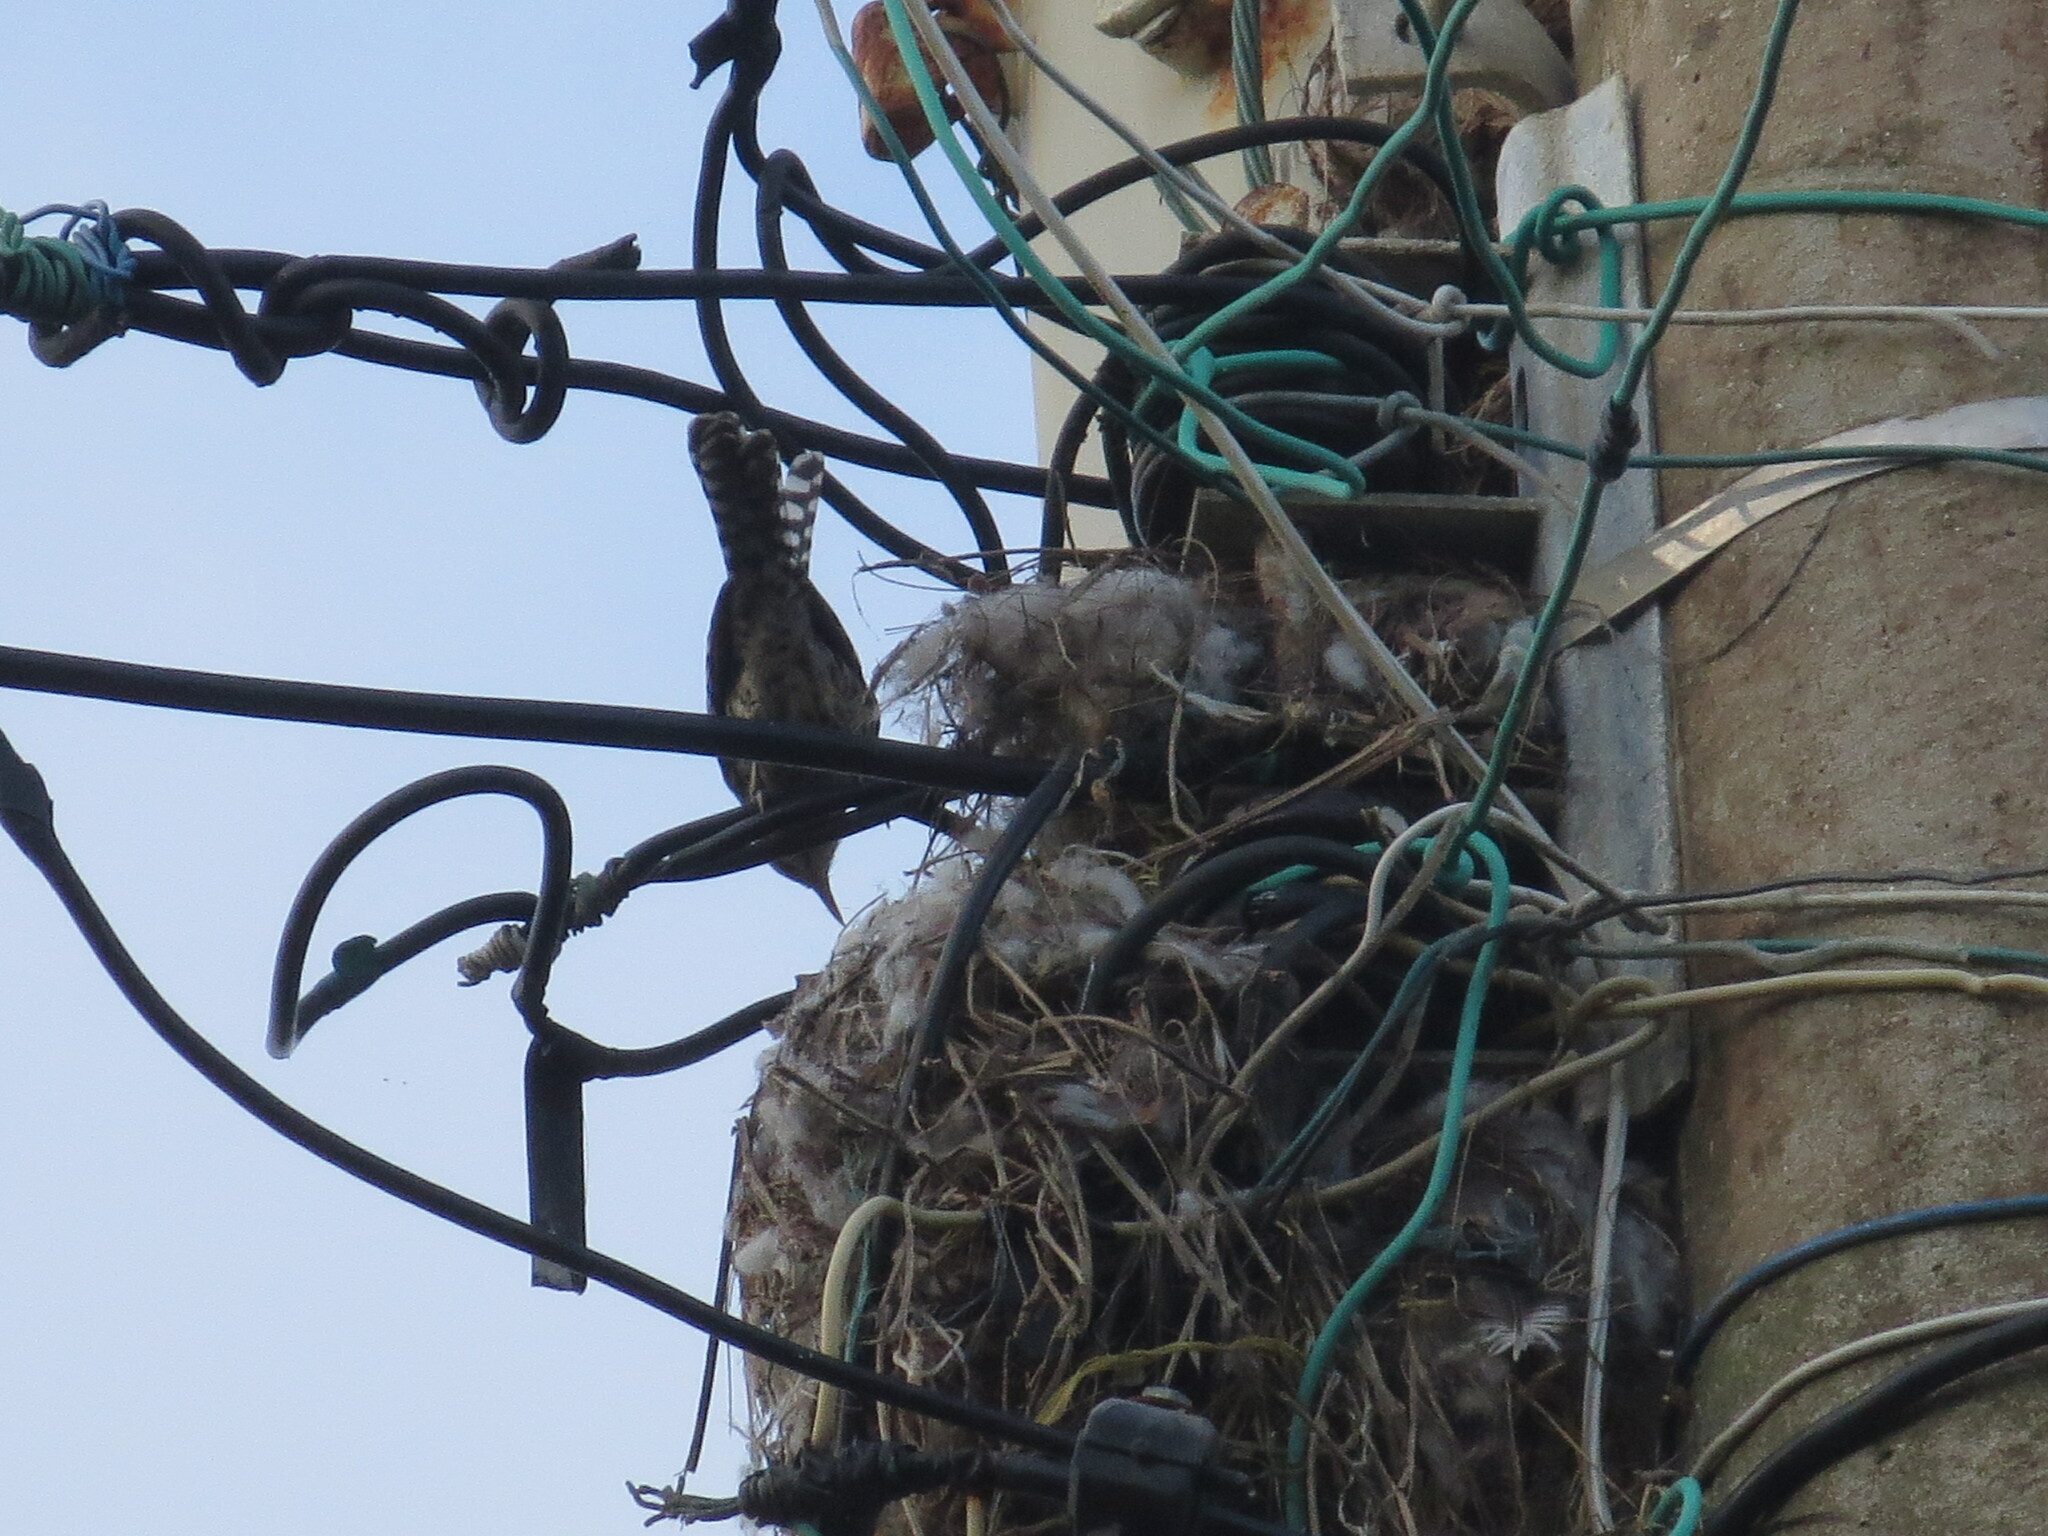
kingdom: Animalia
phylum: Chordata
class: Aves
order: Passeriformes
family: Troglodytidae
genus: Campylorhynchus
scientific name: Campylorhynchus nuchalis
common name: Stripe-backed wren
